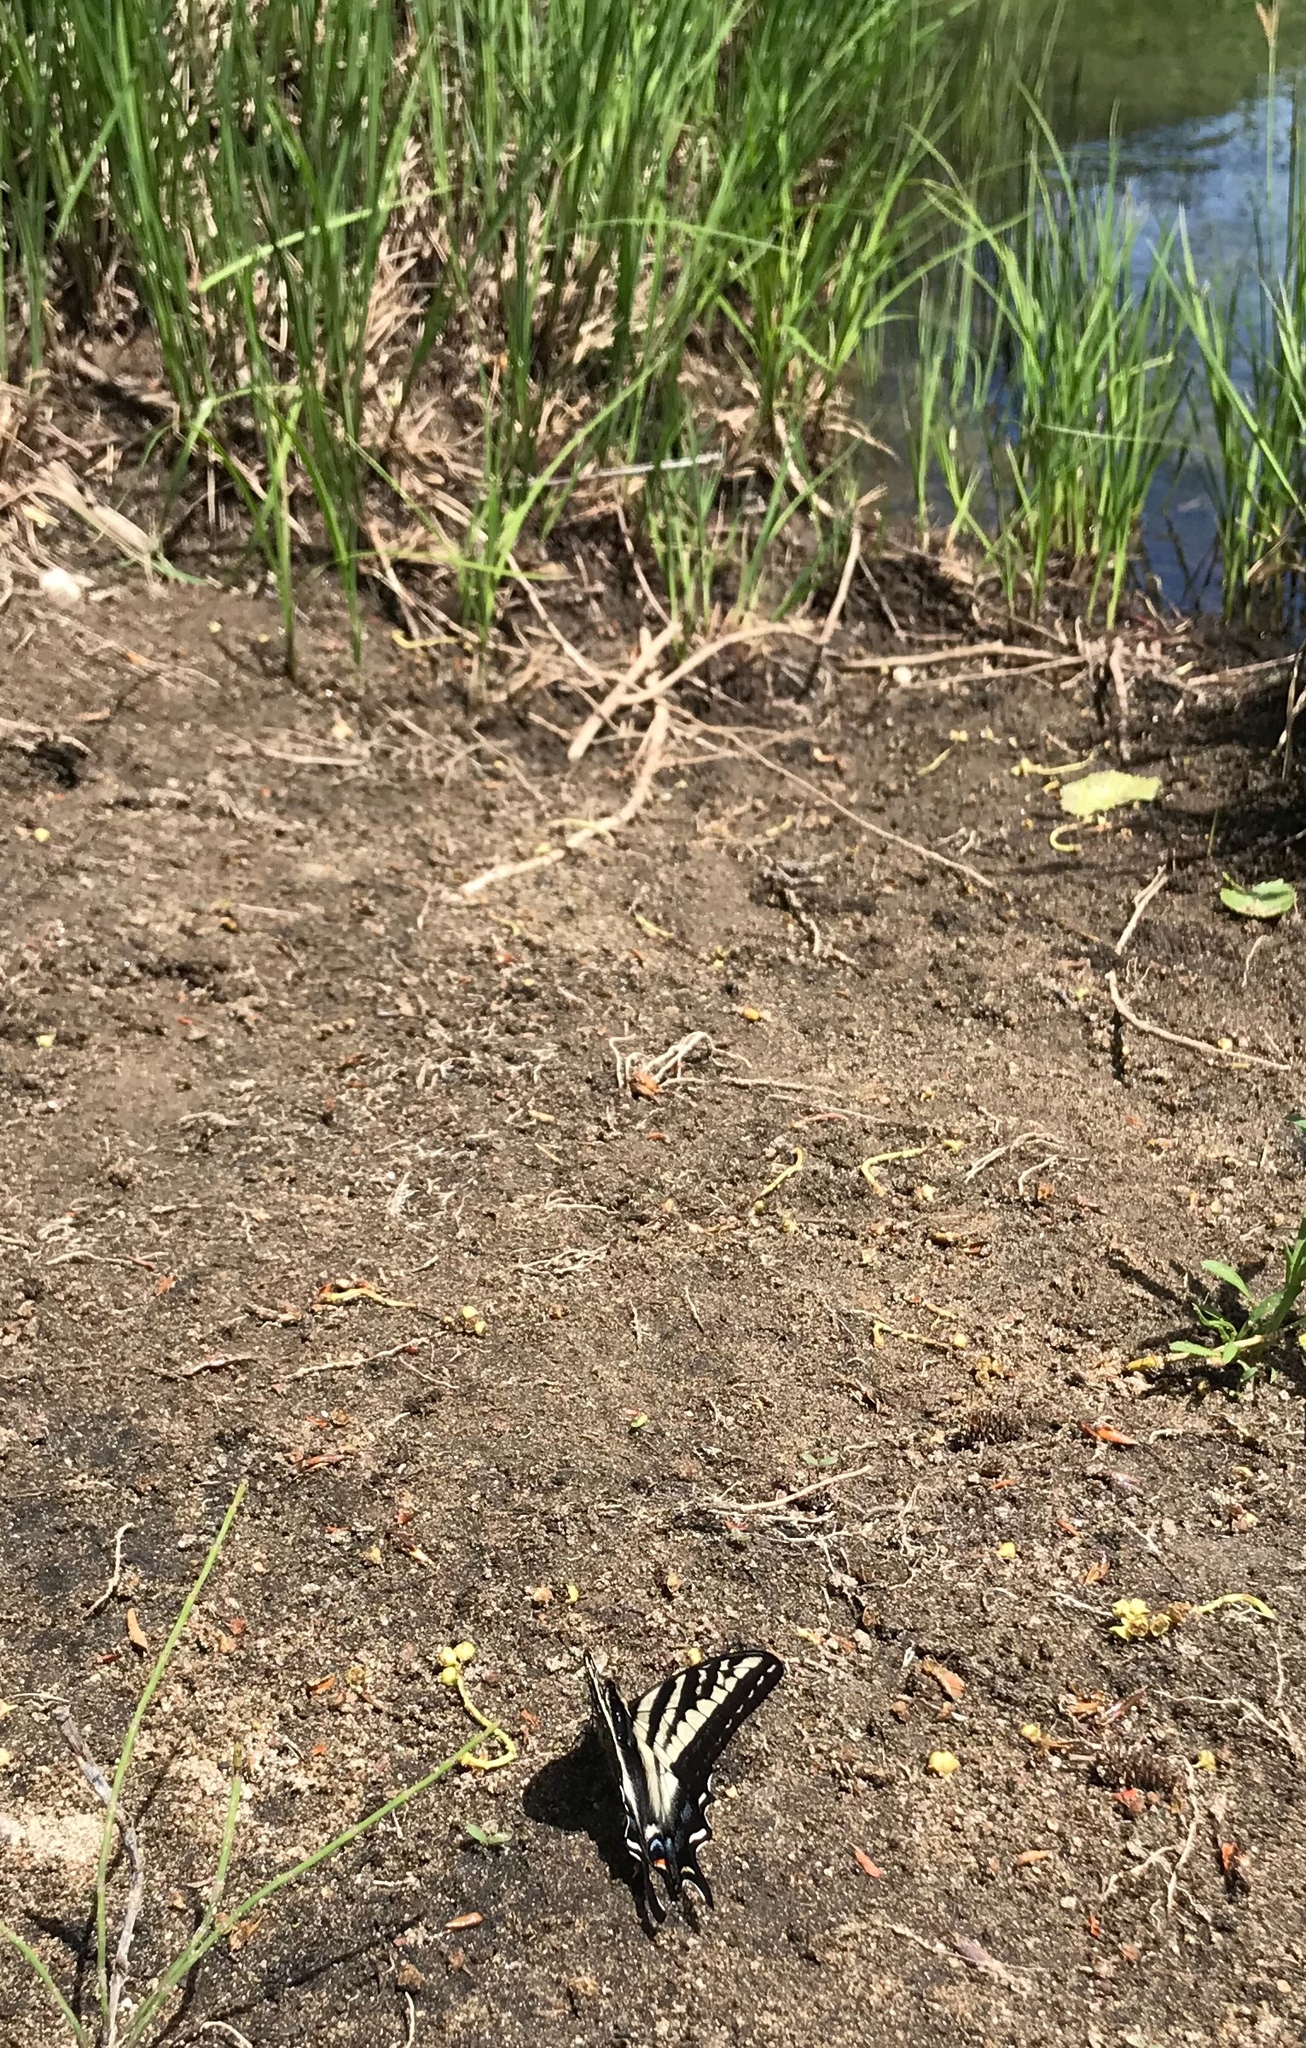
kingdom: Animalia
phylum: Arthropoda
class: Insecta
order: Lepidoptera
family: Papilionidae
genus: Papilio
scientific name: Papilio eurymedon
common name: Pale tiger swallowtail
